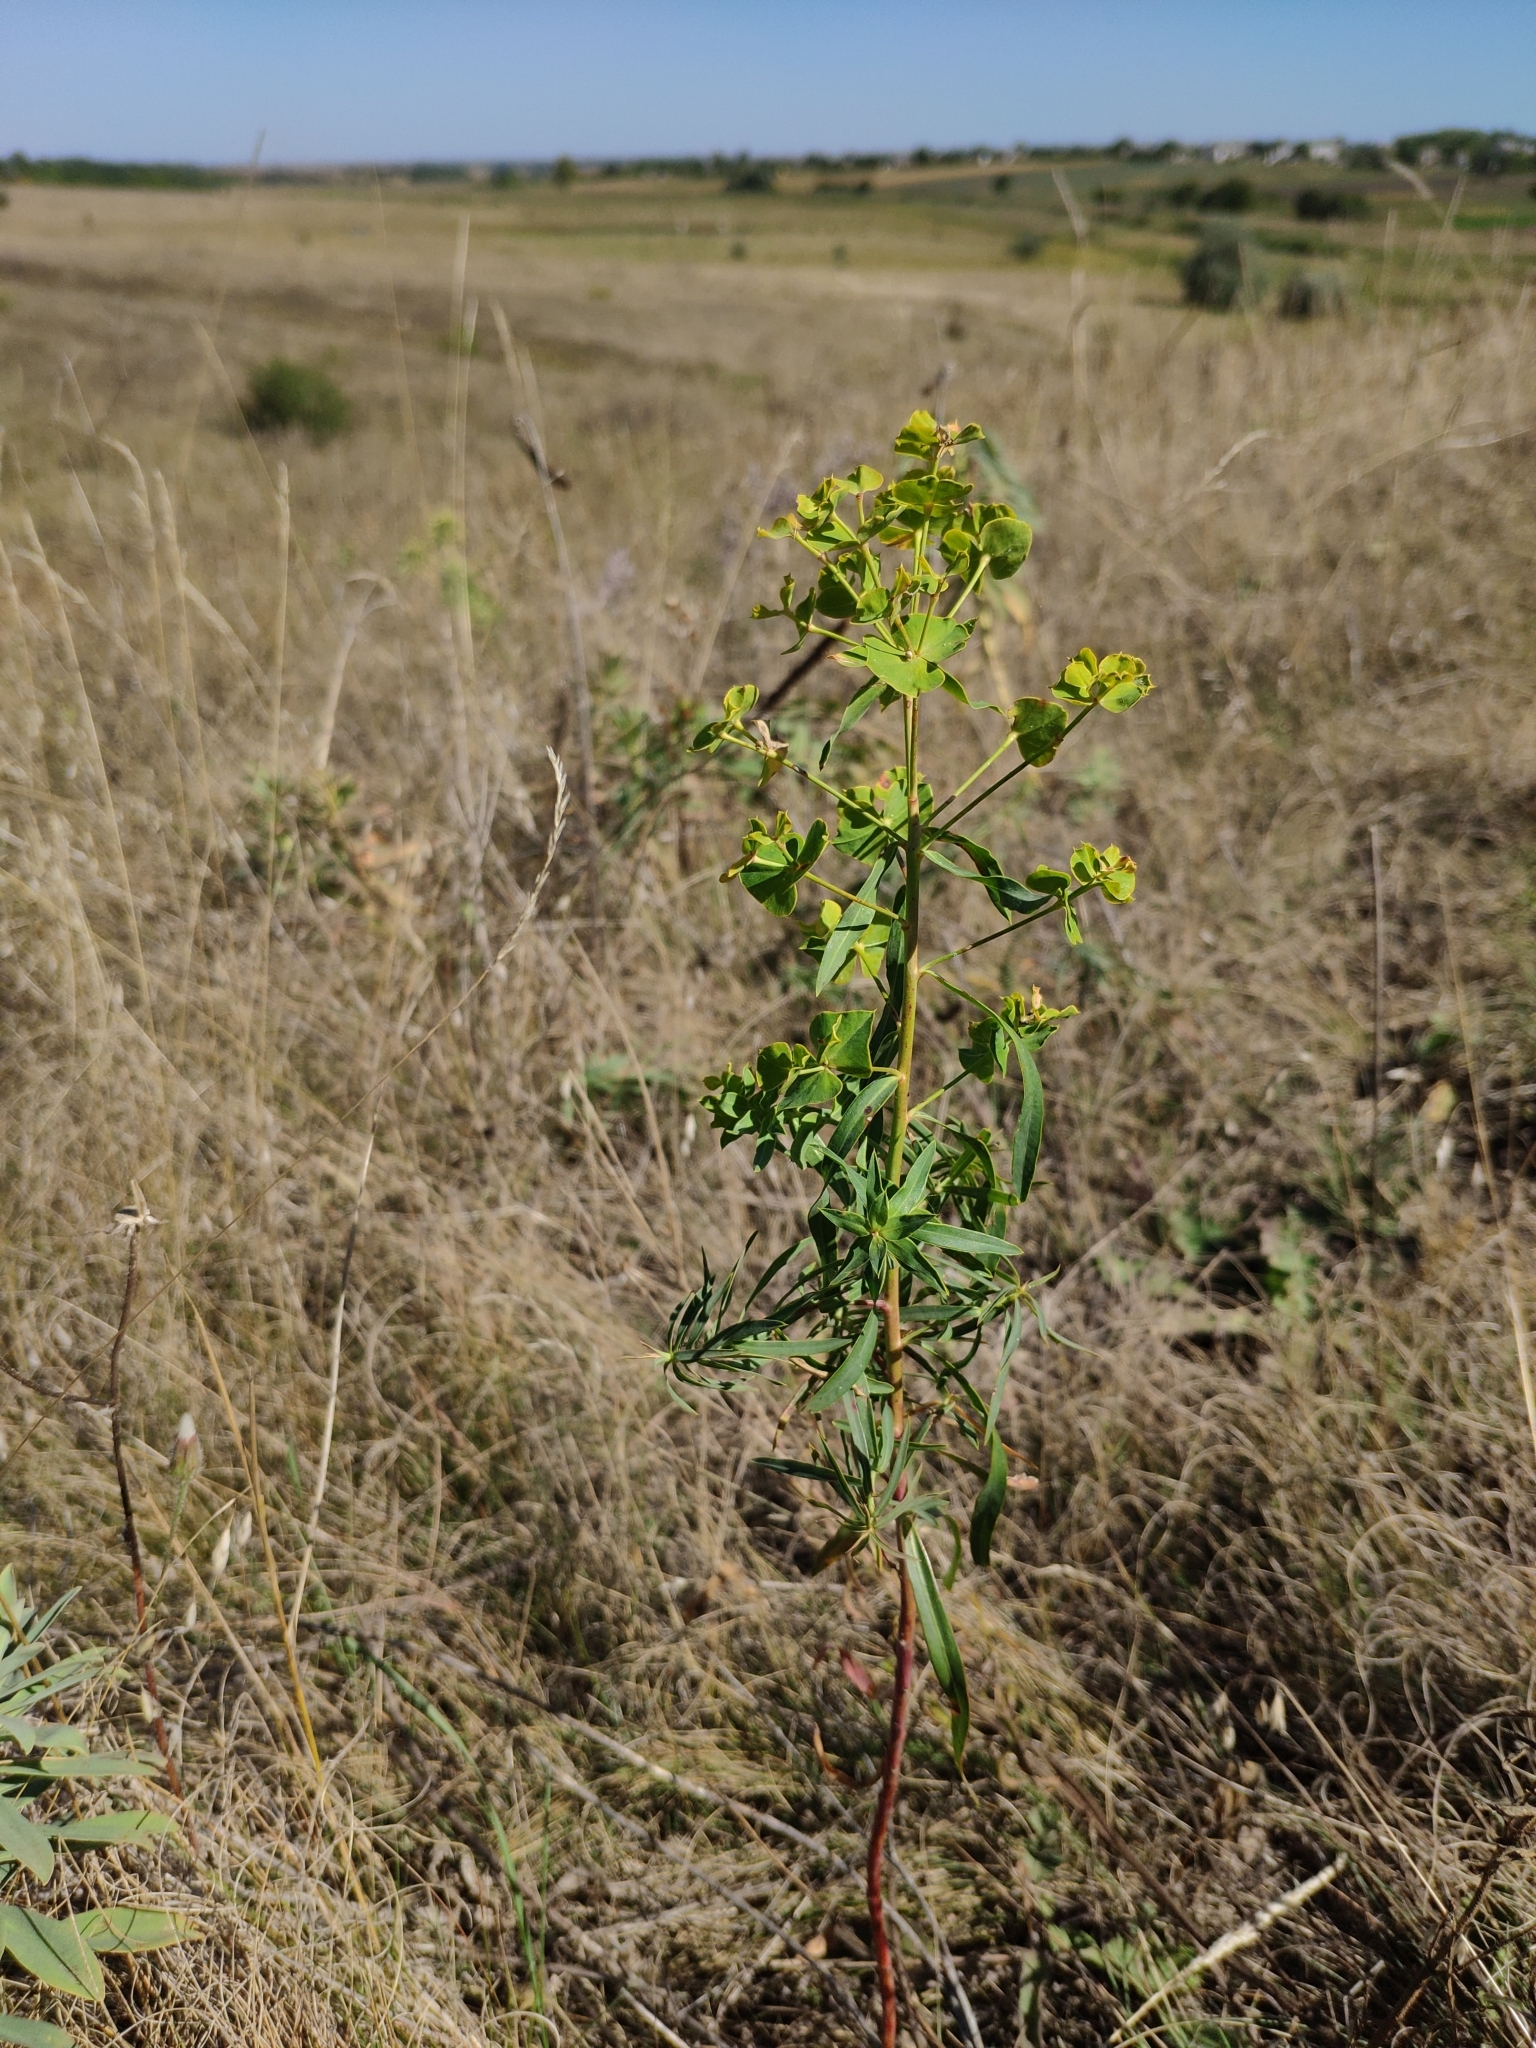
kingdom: Plantae
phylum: Tracheophyta
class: Magnoliopsida
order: Malpighiales
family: Euphorbiaceae
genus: Euphorbia
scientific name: Euphorbia virgata
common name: Leafy spurge
